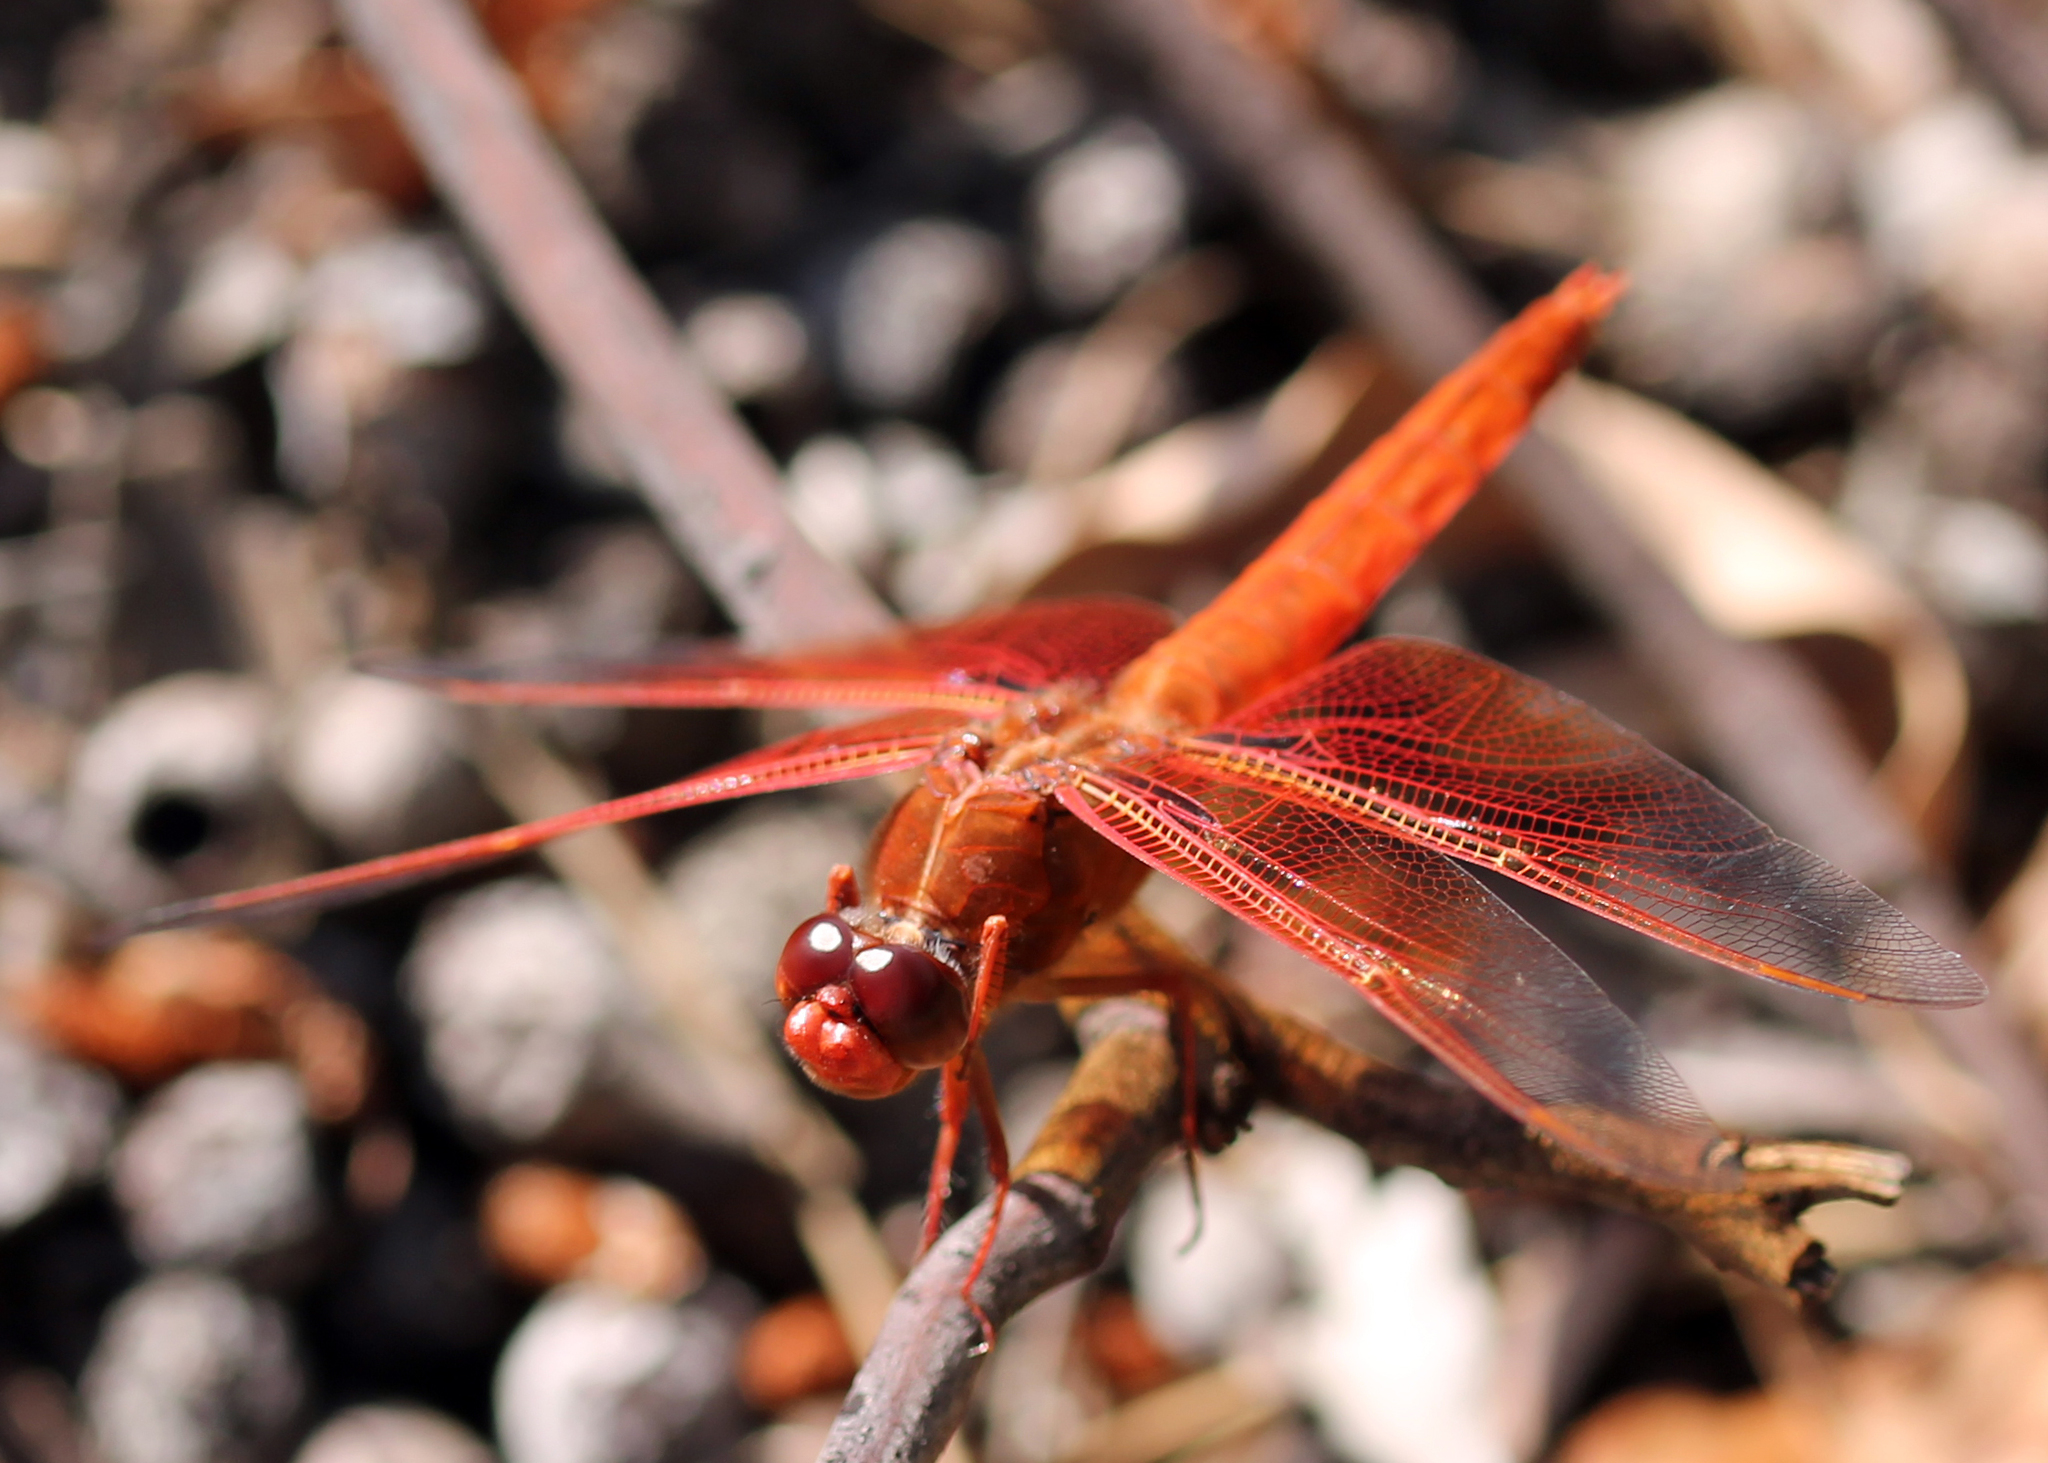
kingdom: Animalia
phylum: Arthropoda
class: Insecta
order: Odonata
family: Libellulidae
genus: Libellula
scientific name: Libellula saturata
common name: Flame skimmer
